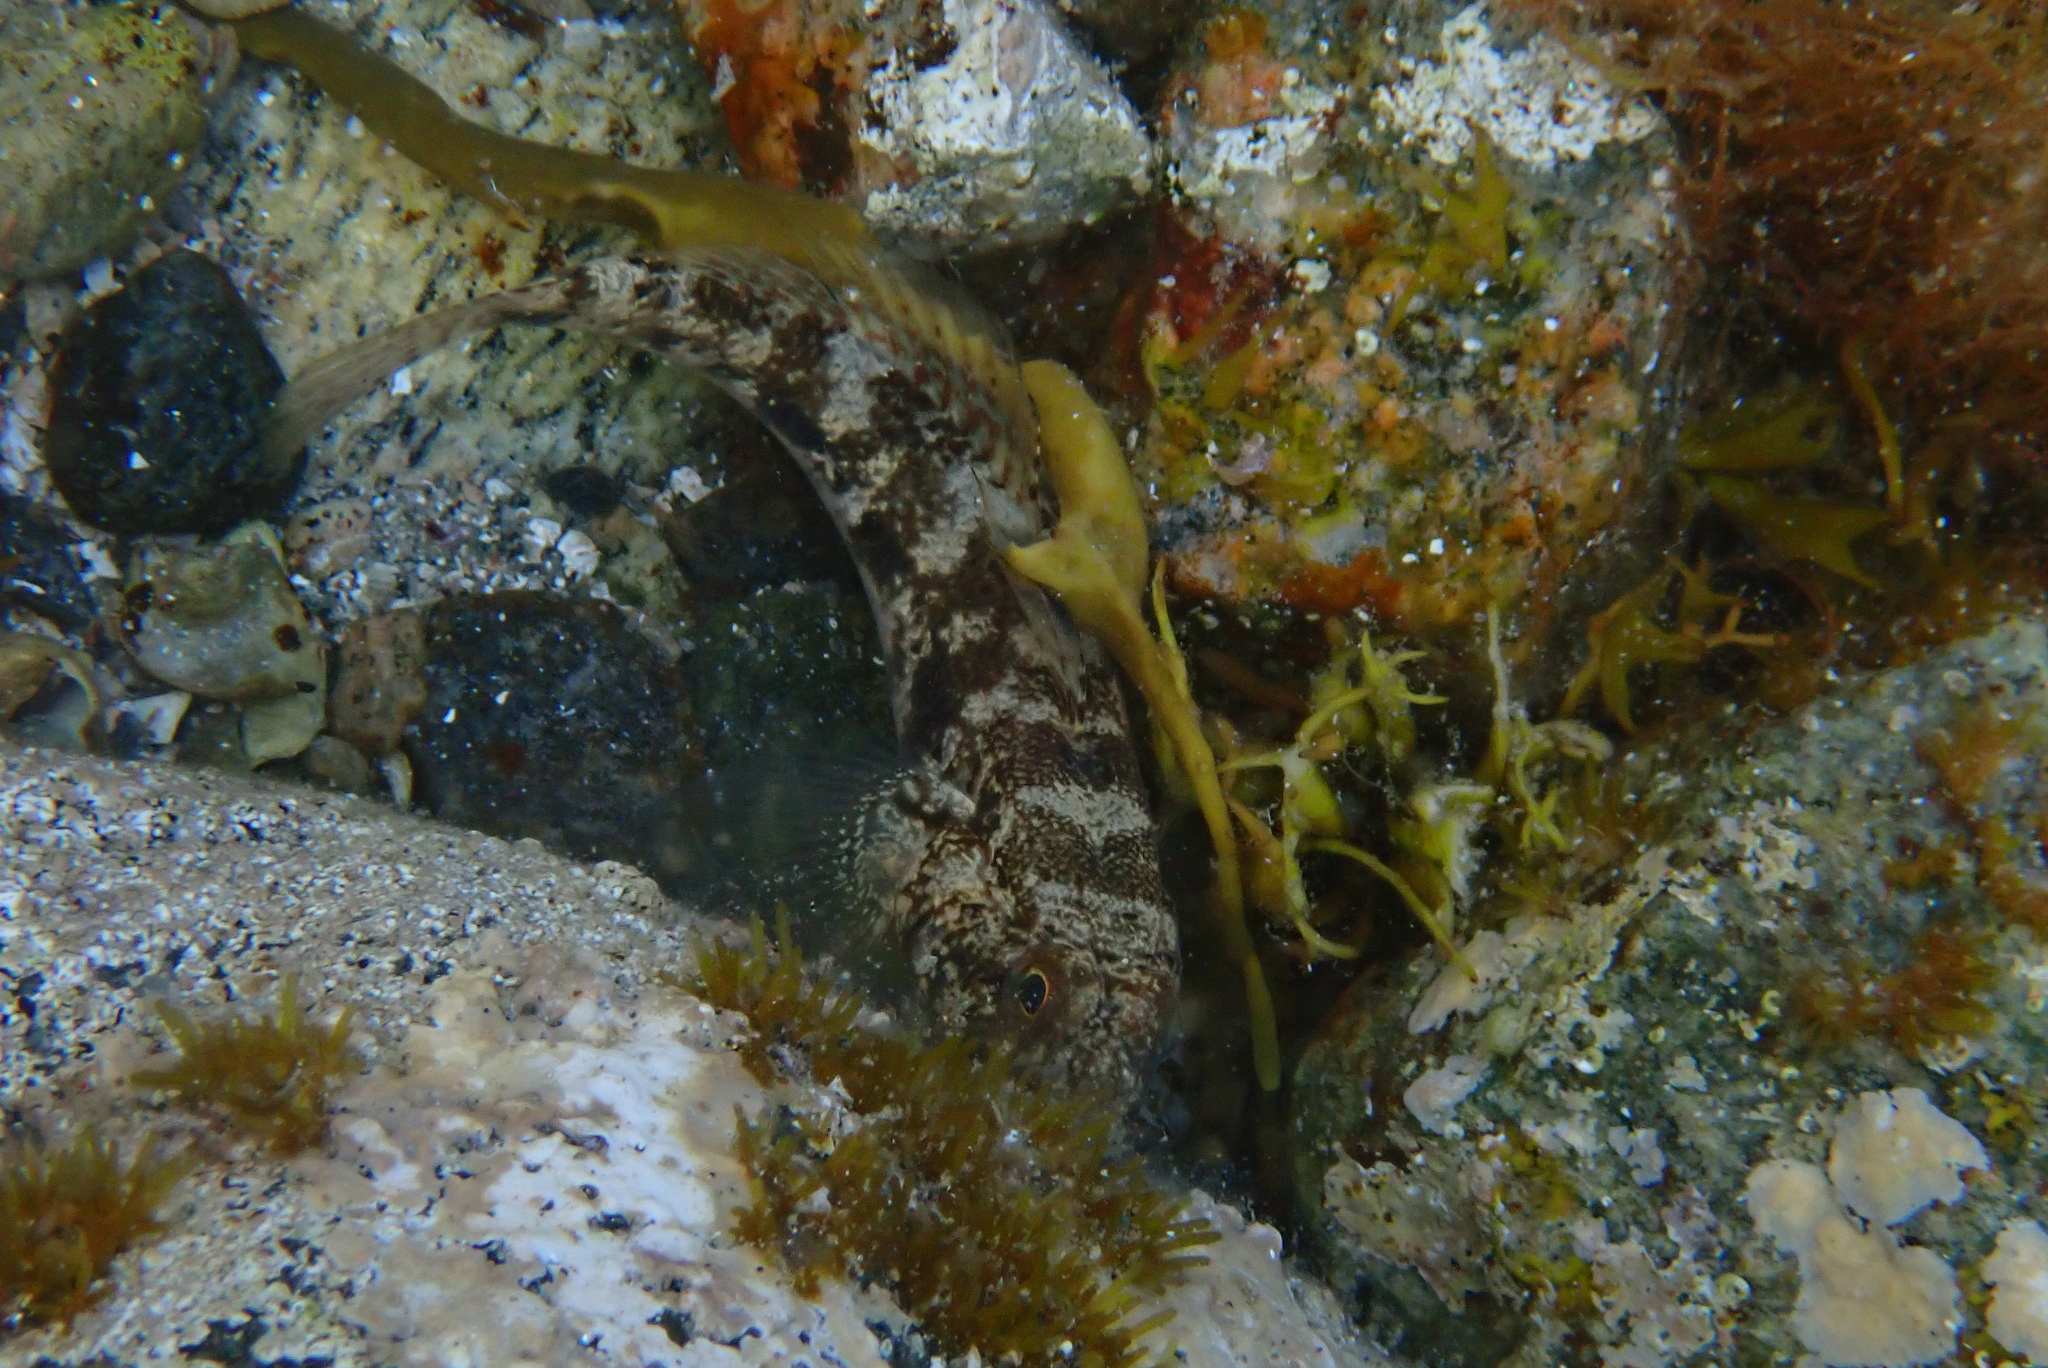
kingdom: Animalia
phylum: Chordata
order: Perciformes
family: Gobiidae
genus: Gobius
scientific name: Gobius niger
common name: Black goby
